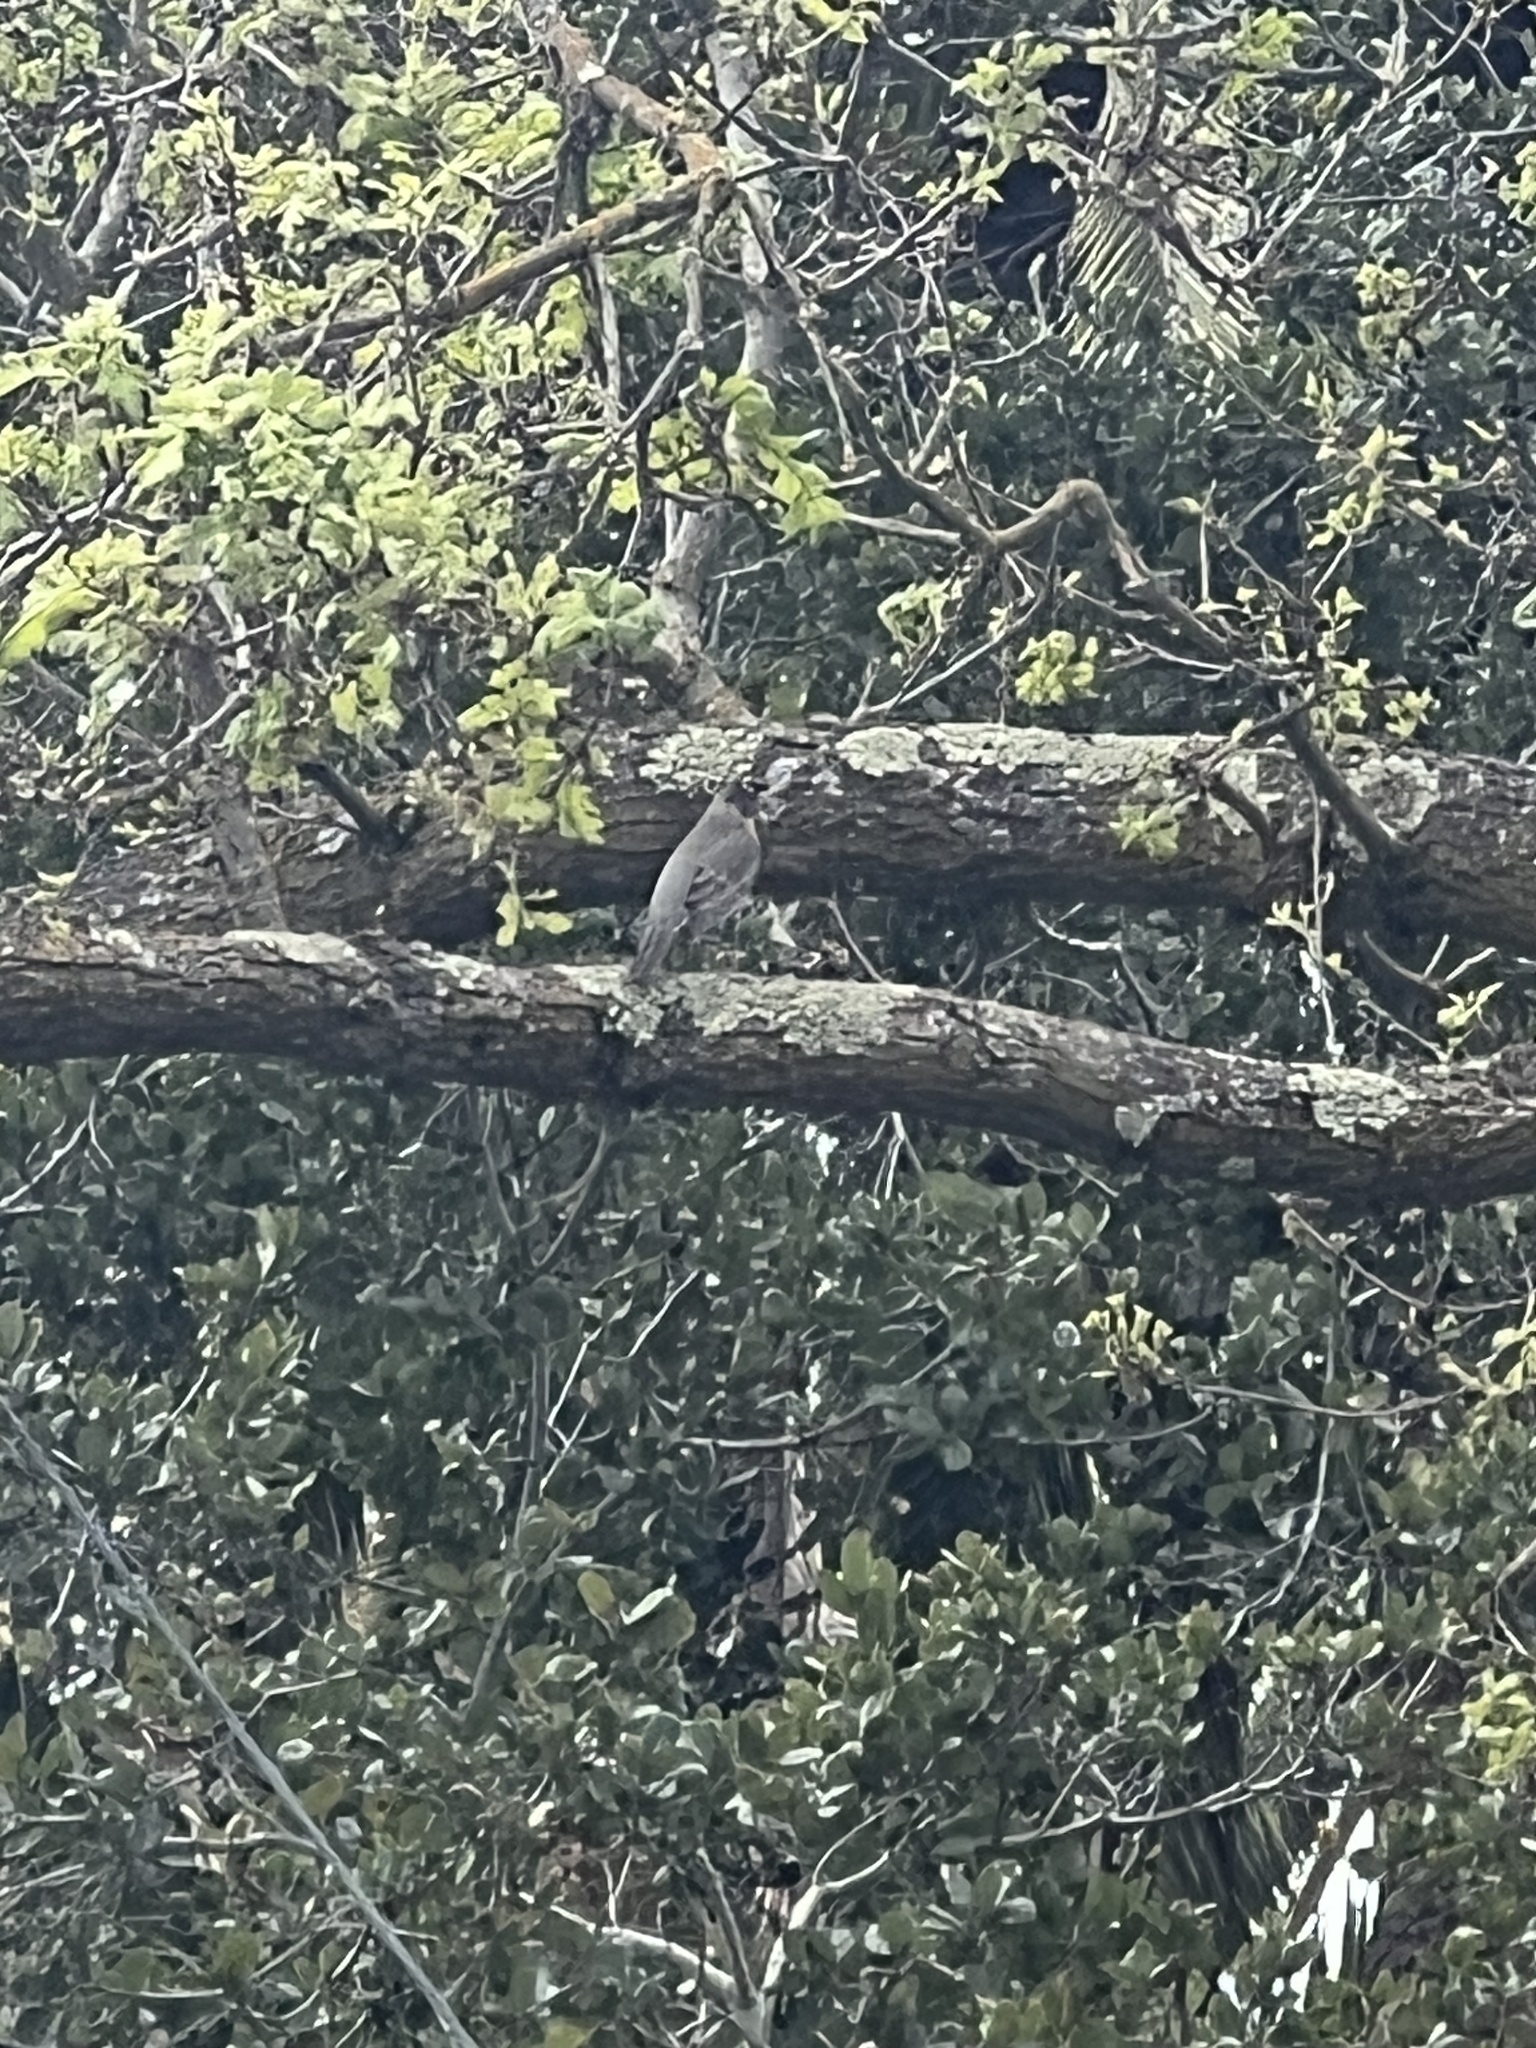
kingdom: Animalia
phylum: Chordata
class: Aves
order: Passeriformes
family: Turdidae
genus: Turdus
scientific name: Turdus migratorius
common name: American robin
